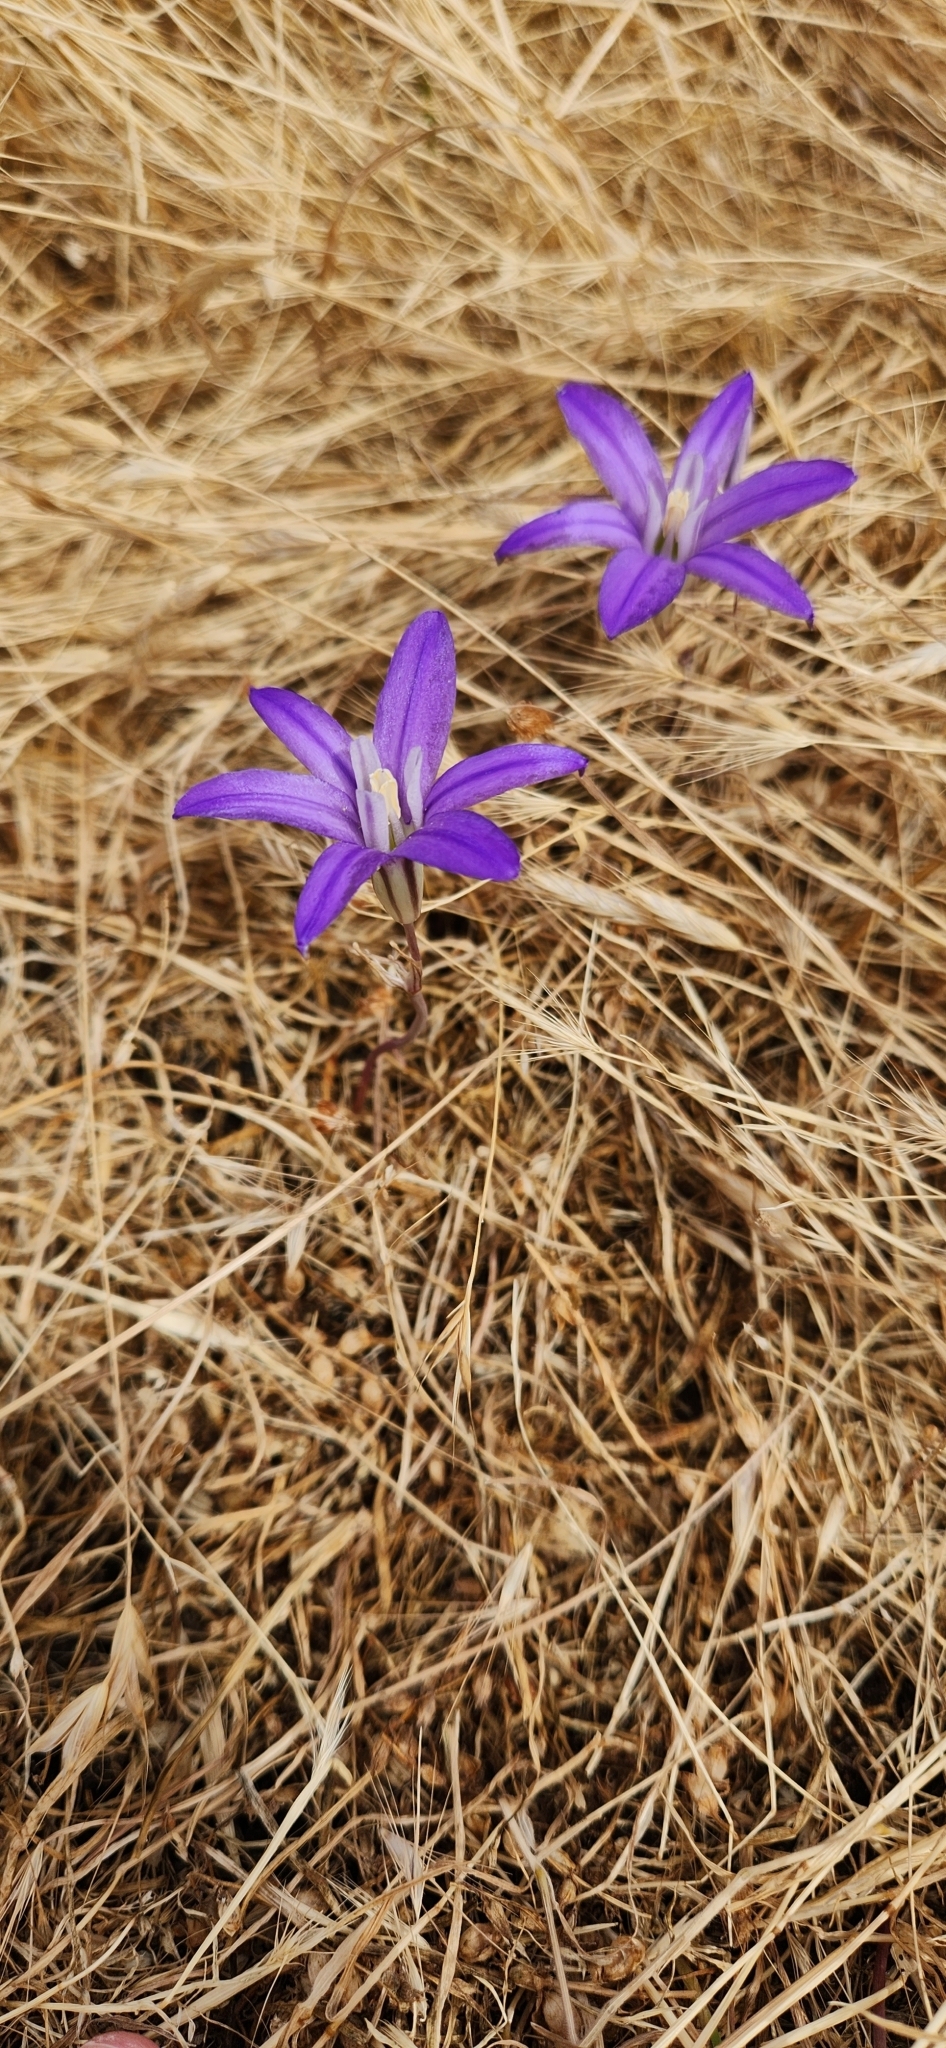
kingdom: Plantae
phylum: Tracheophyta
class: Liliopsida
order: Asparagales
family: Asparagaceae
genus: Brodiaea
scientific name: Brodiaea coronaria
